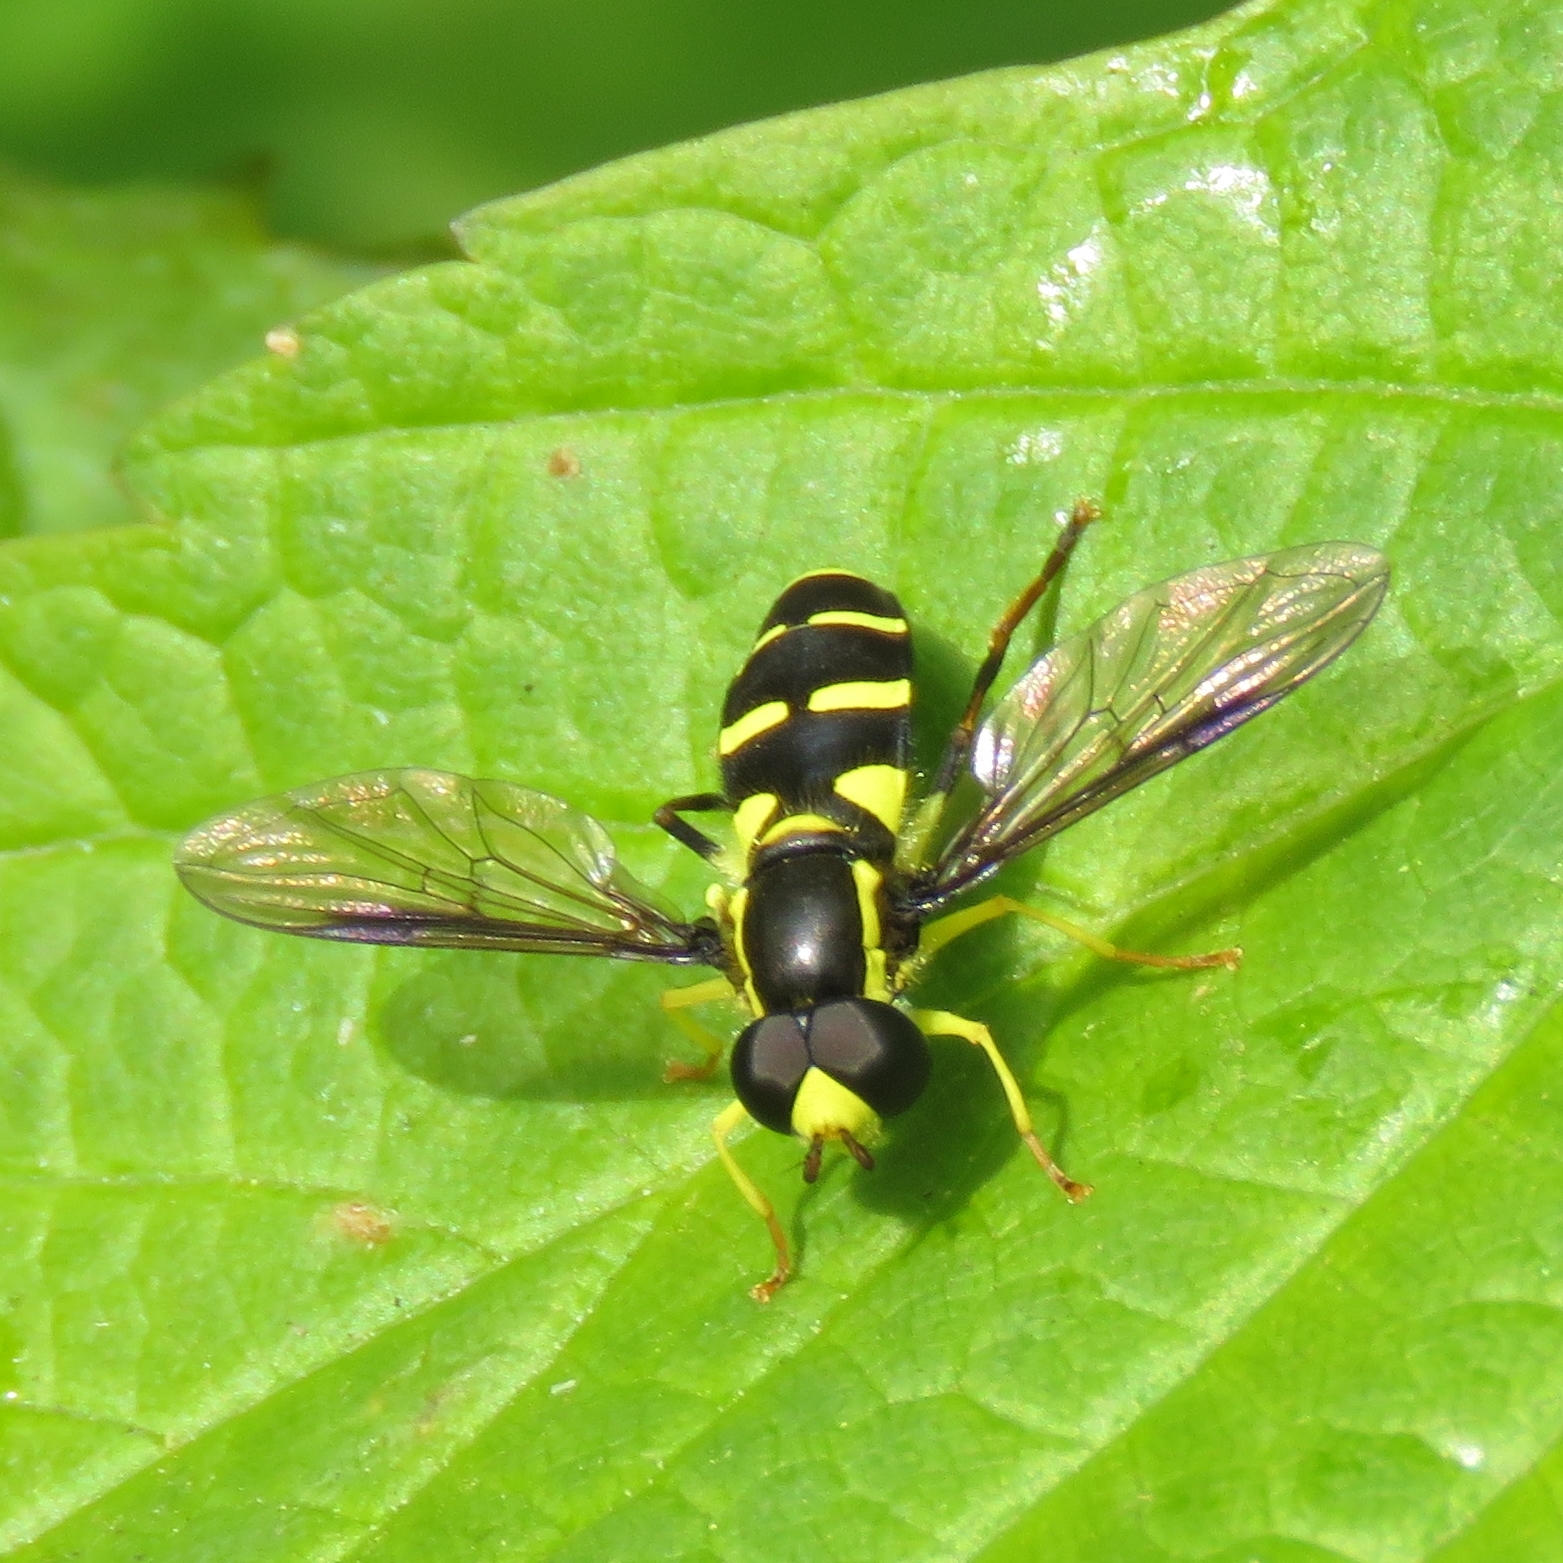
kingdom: Animalia
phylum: Arthropoda
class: Insecta
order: Diptera
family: Syrphidae
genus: Philhelius
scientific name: Philhelius pedissequum
